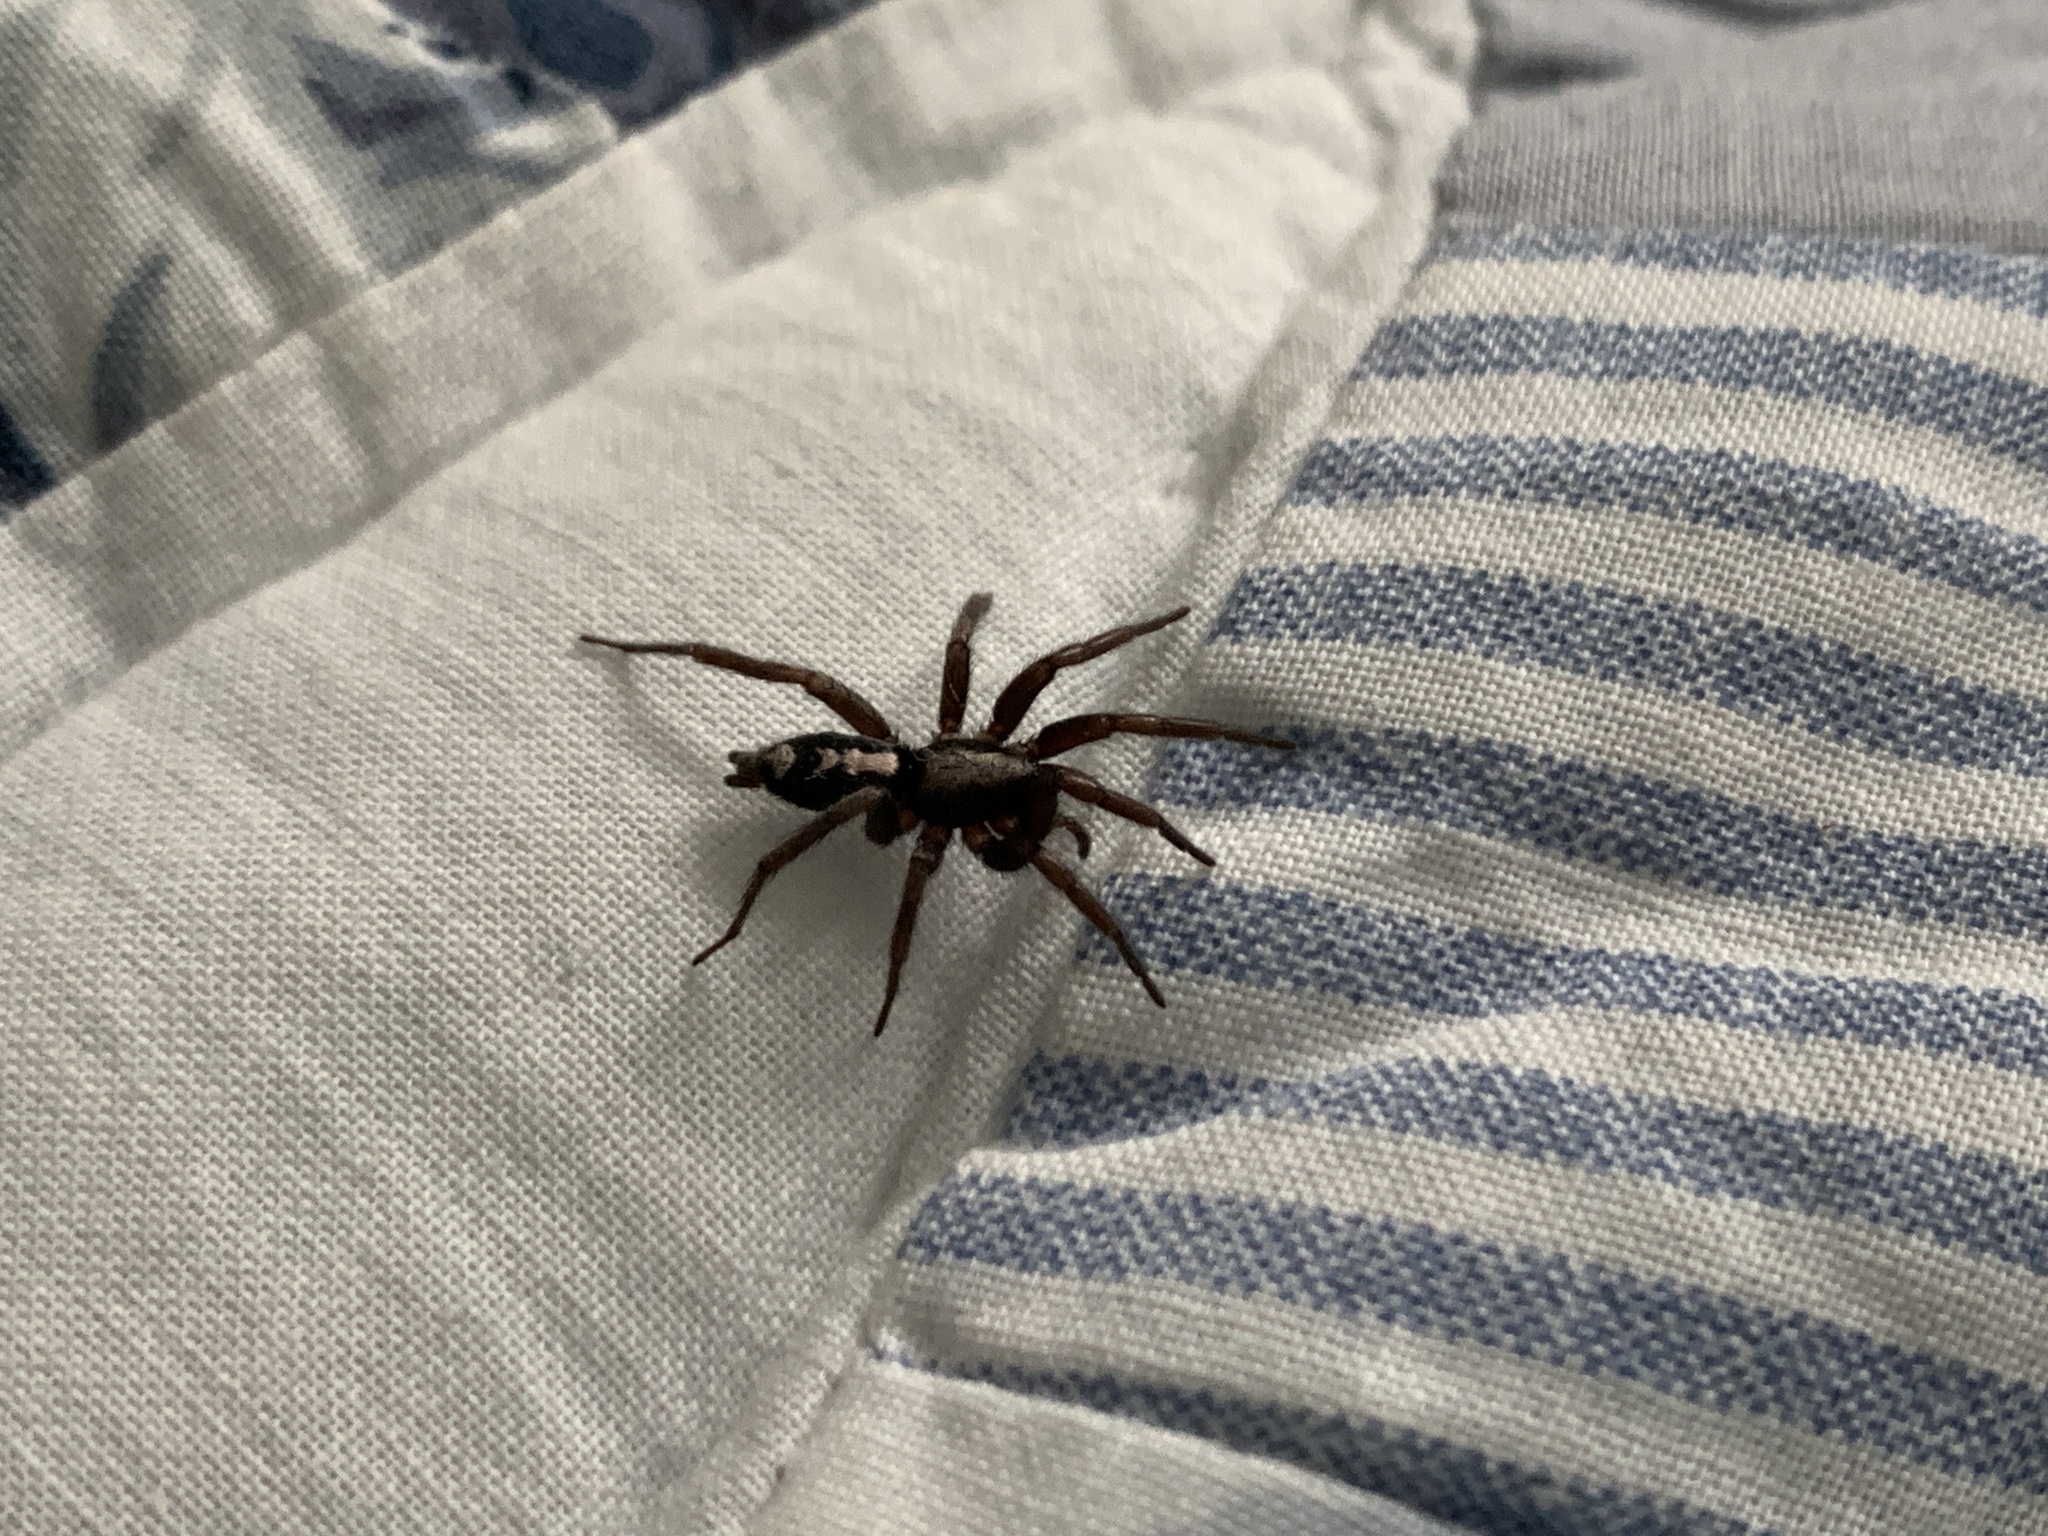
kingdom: Animalia
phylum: Arthropoda
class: Arachnida
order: Araneae
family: Gnaphosidae
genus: Herpyllus
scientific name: Herpyllus ecclesiasticus
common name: Eastern parson spider
